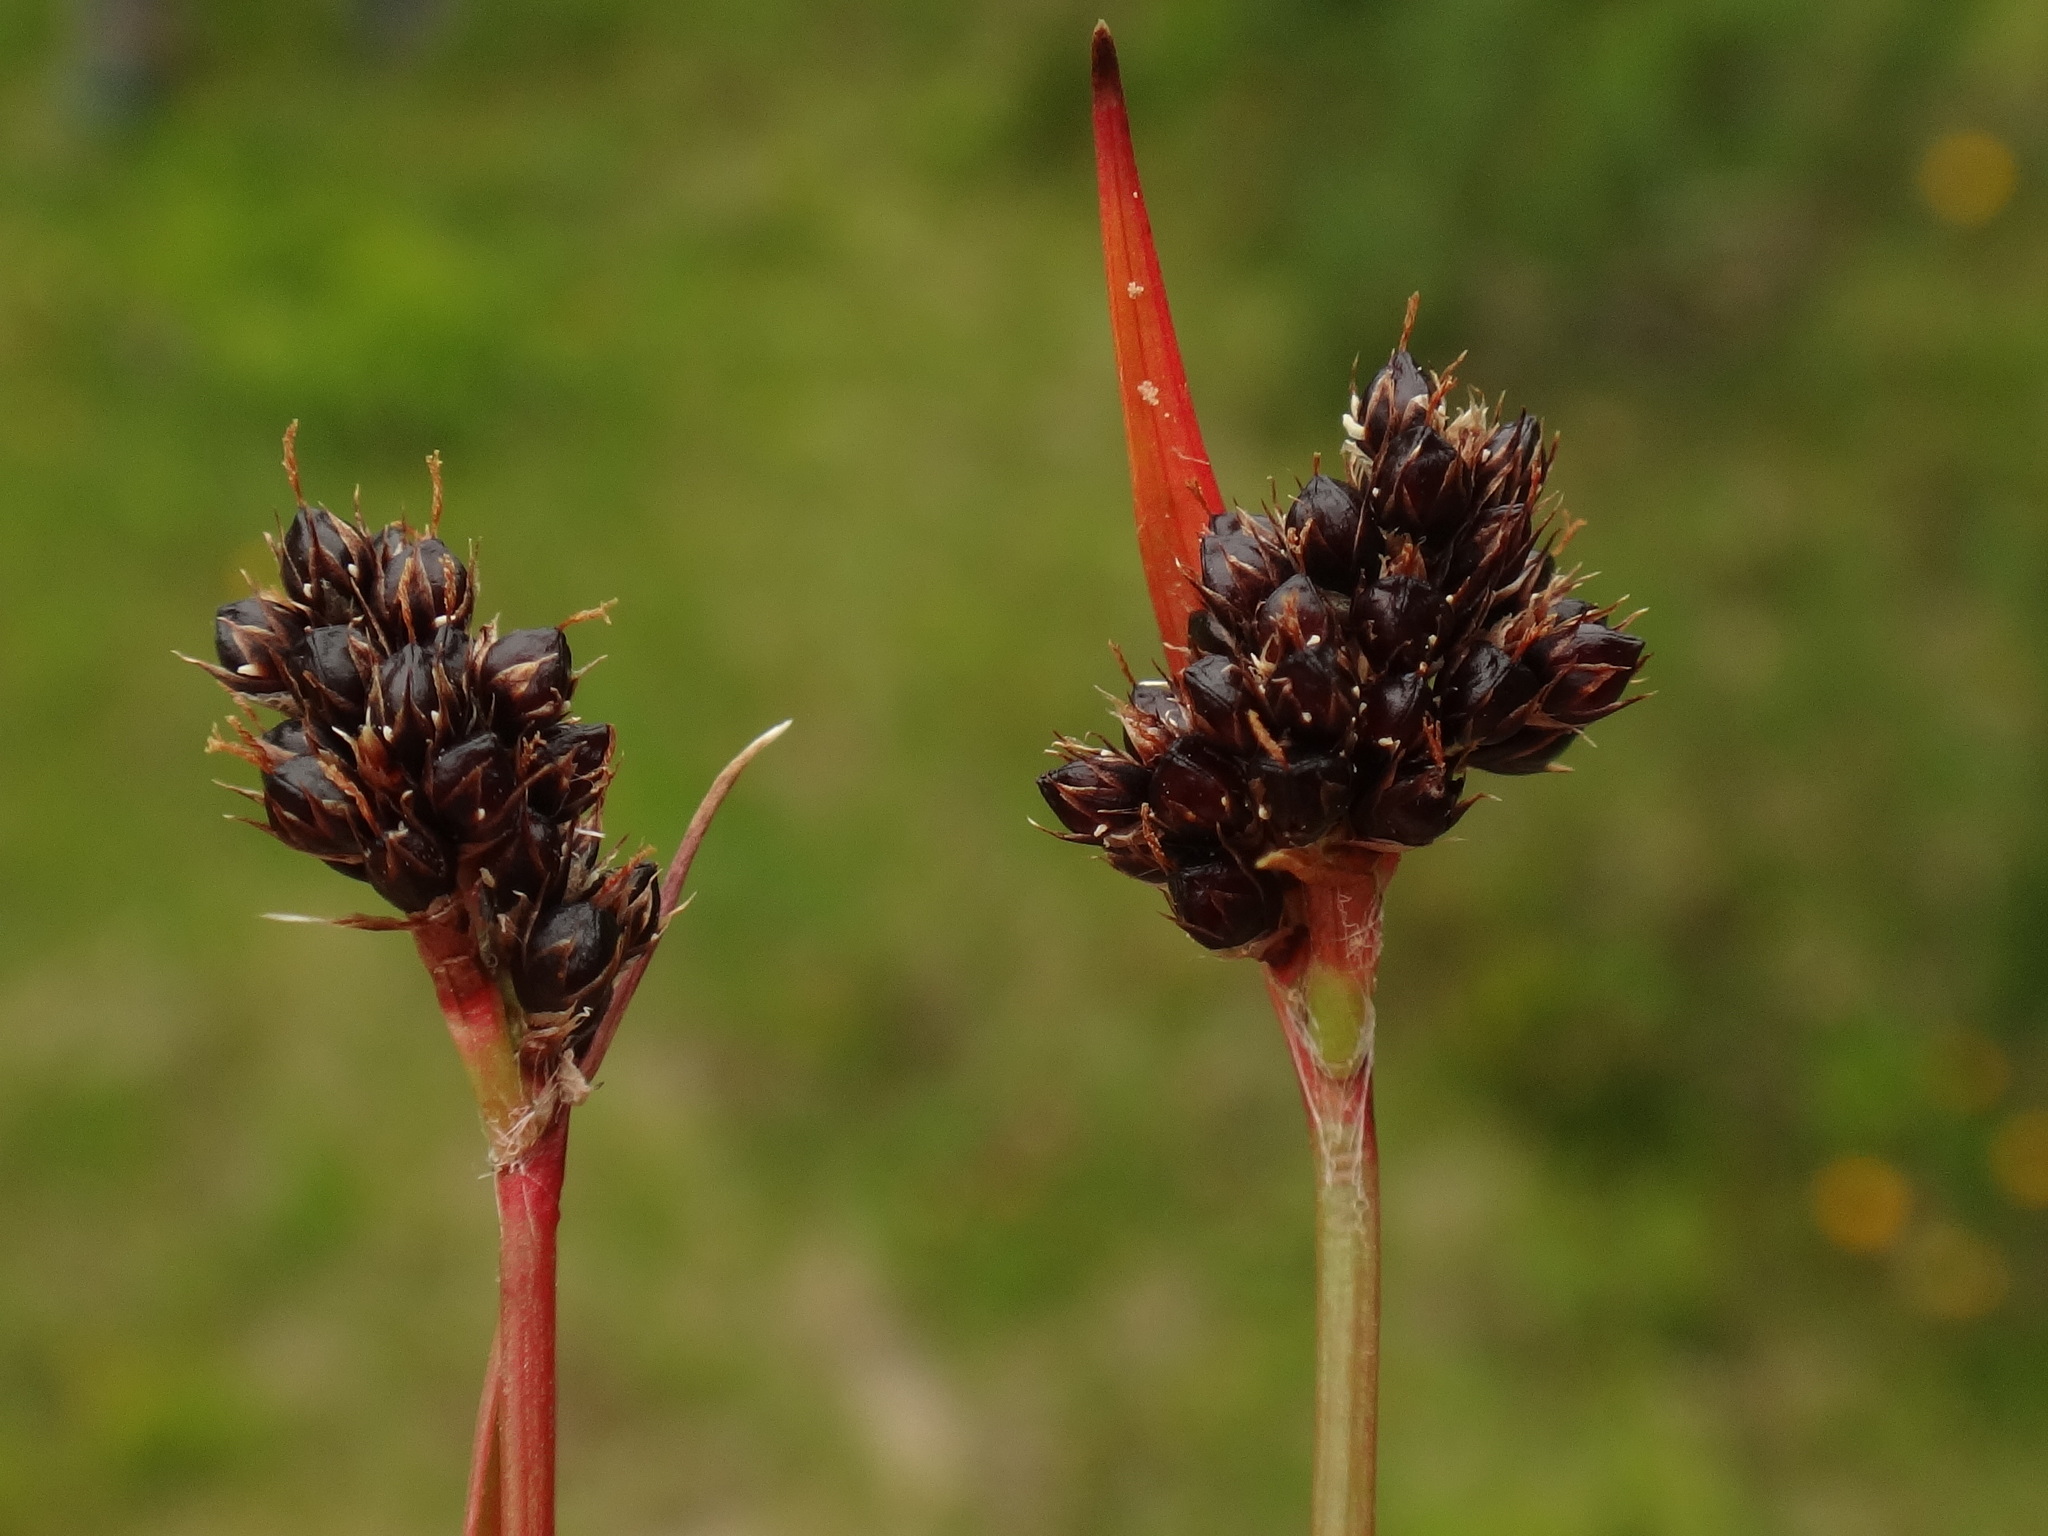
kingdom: Plantae
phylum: Tracheophyta
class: Liliopsida
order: Poales
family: Juncaceae
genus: Luzula
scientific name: Luzula sudetica
